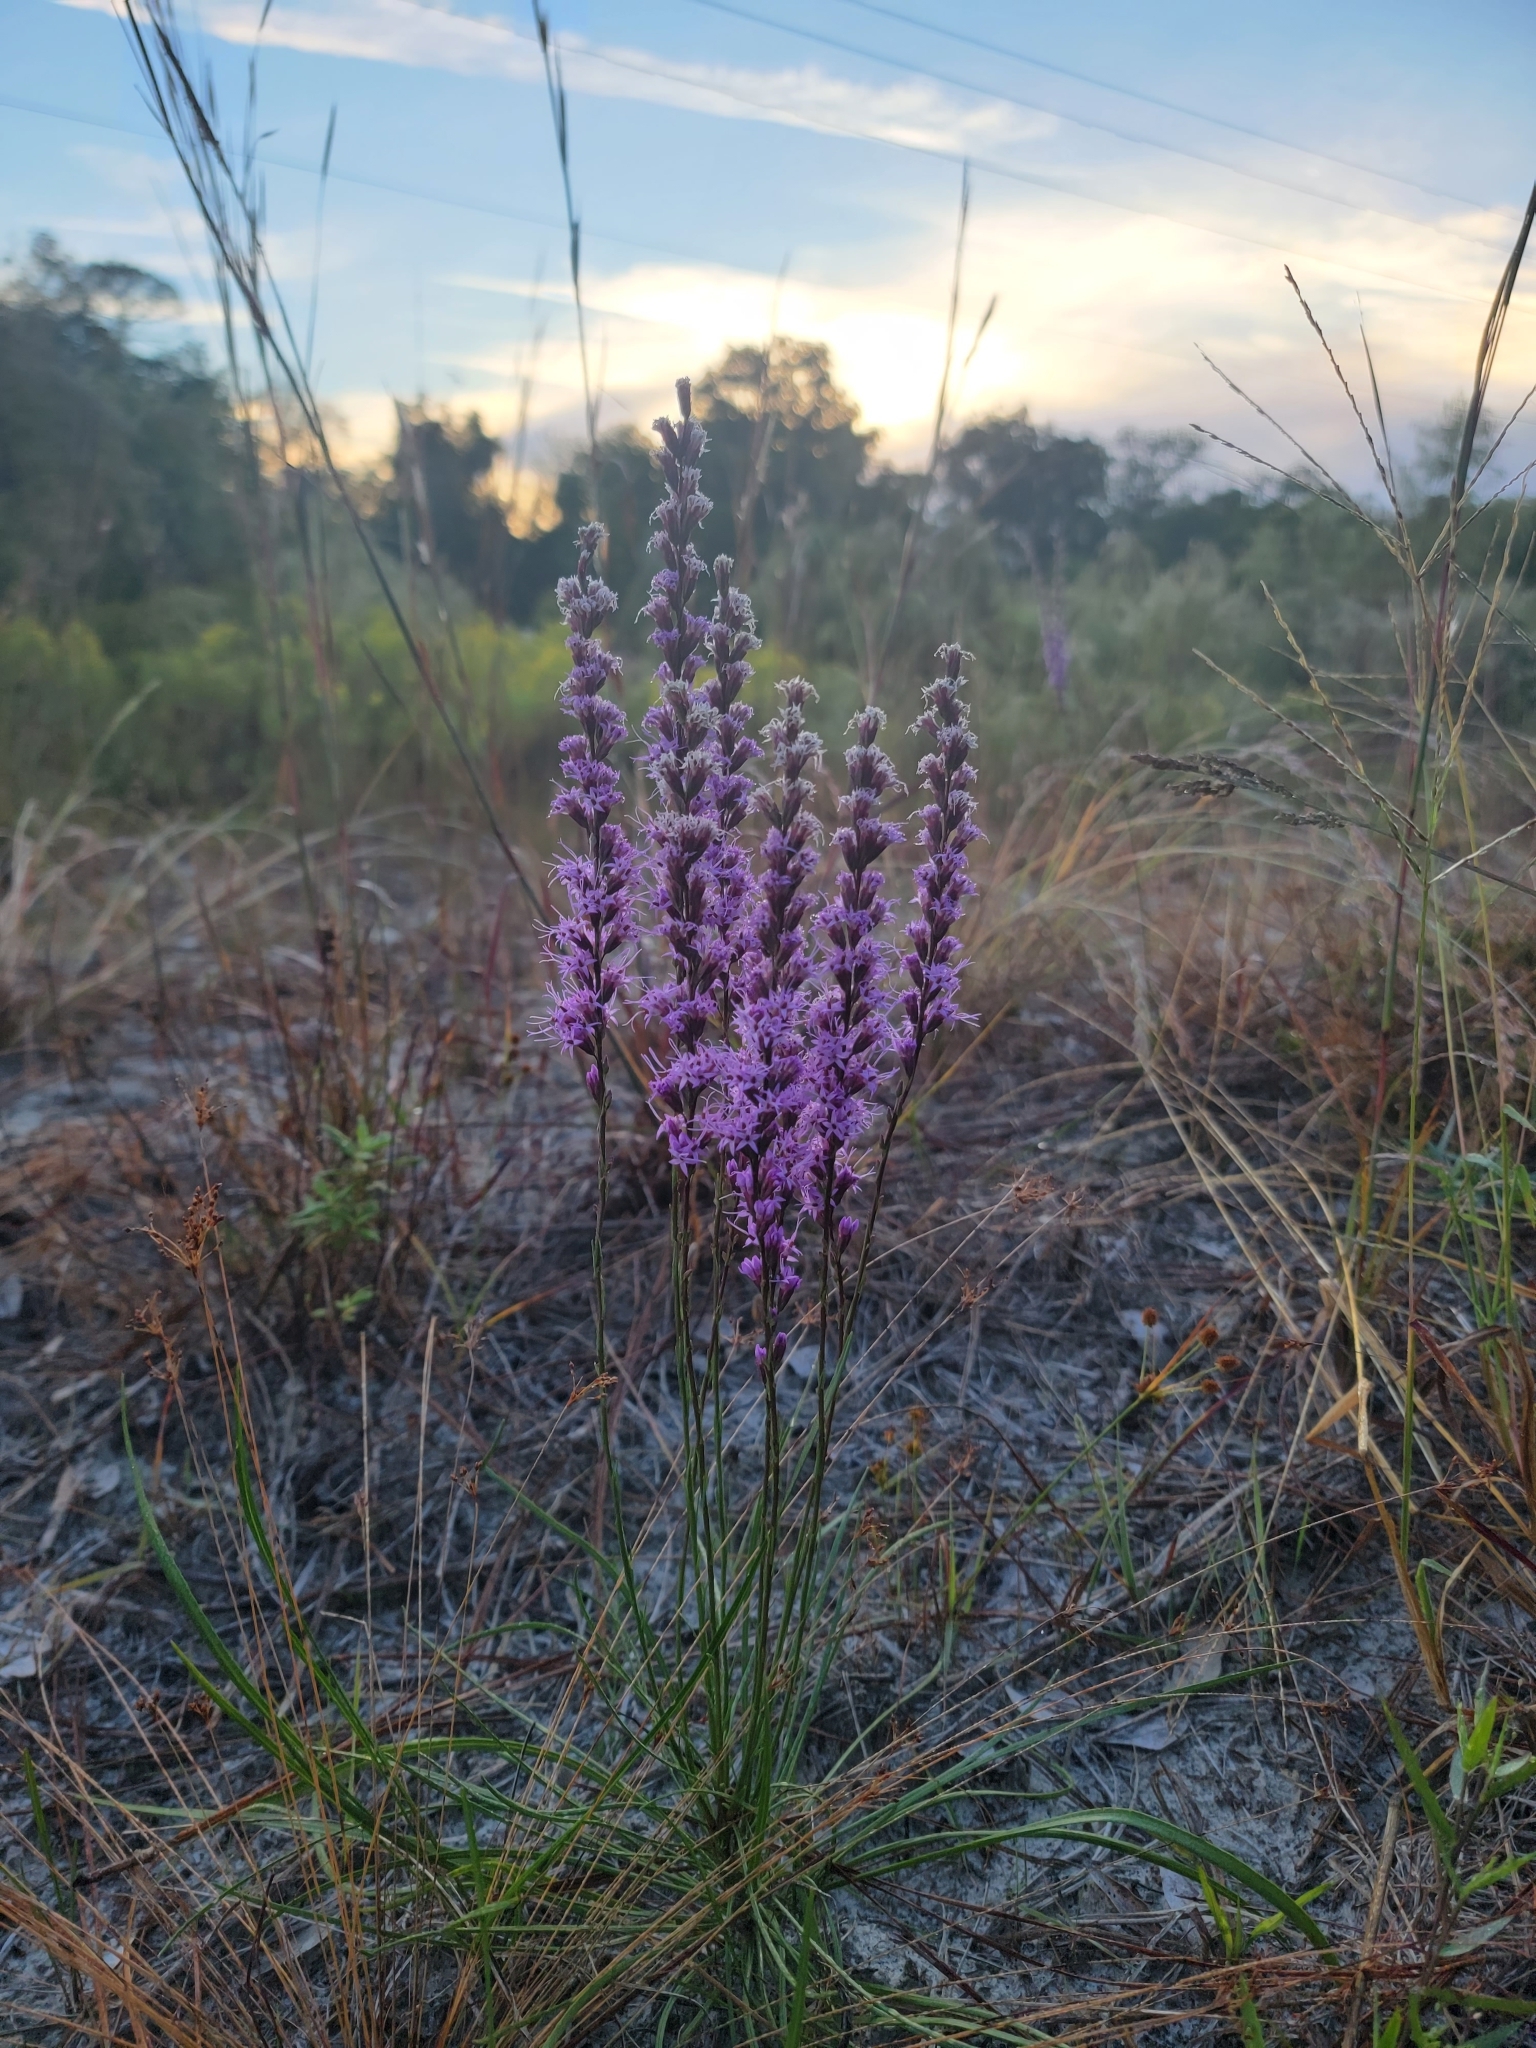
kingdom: Plantae
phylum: Tracheophyta
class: Magnoliopsida
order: Asterales
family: Asteraceae
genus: Liatris
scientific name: Liatris quadriflora
